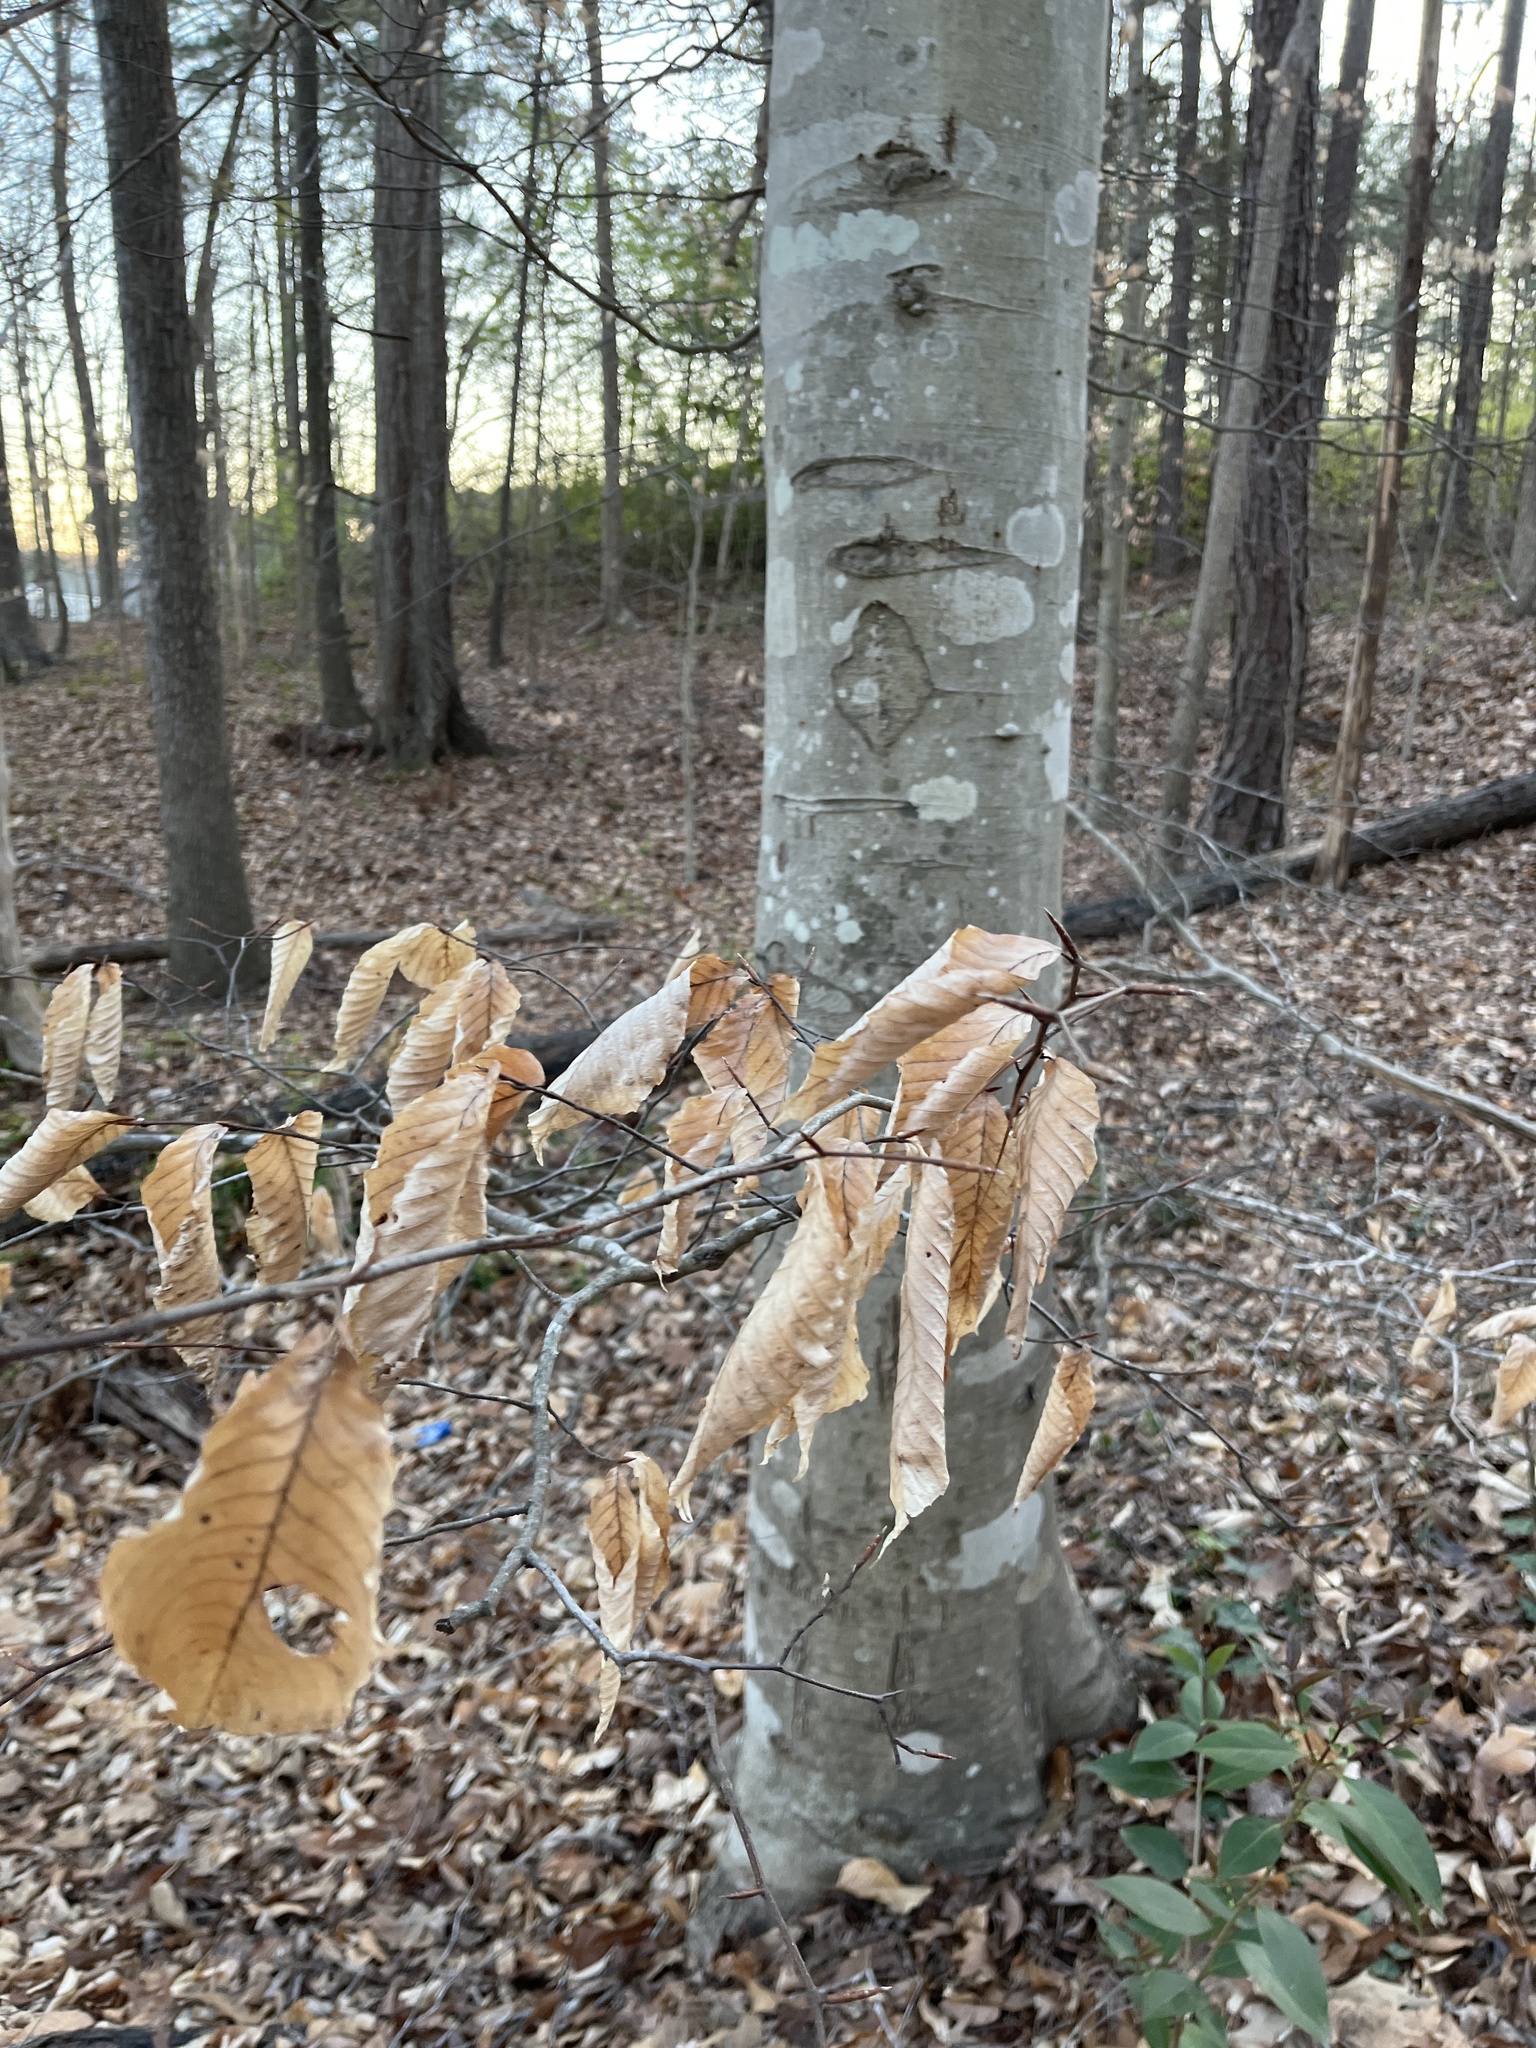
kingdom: Plantae
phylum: Tracheophyta
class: Magnoliopsida
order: Fagales
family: Fagaceae
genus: Fagus
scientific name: Fagus grandifolia
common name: American beech
